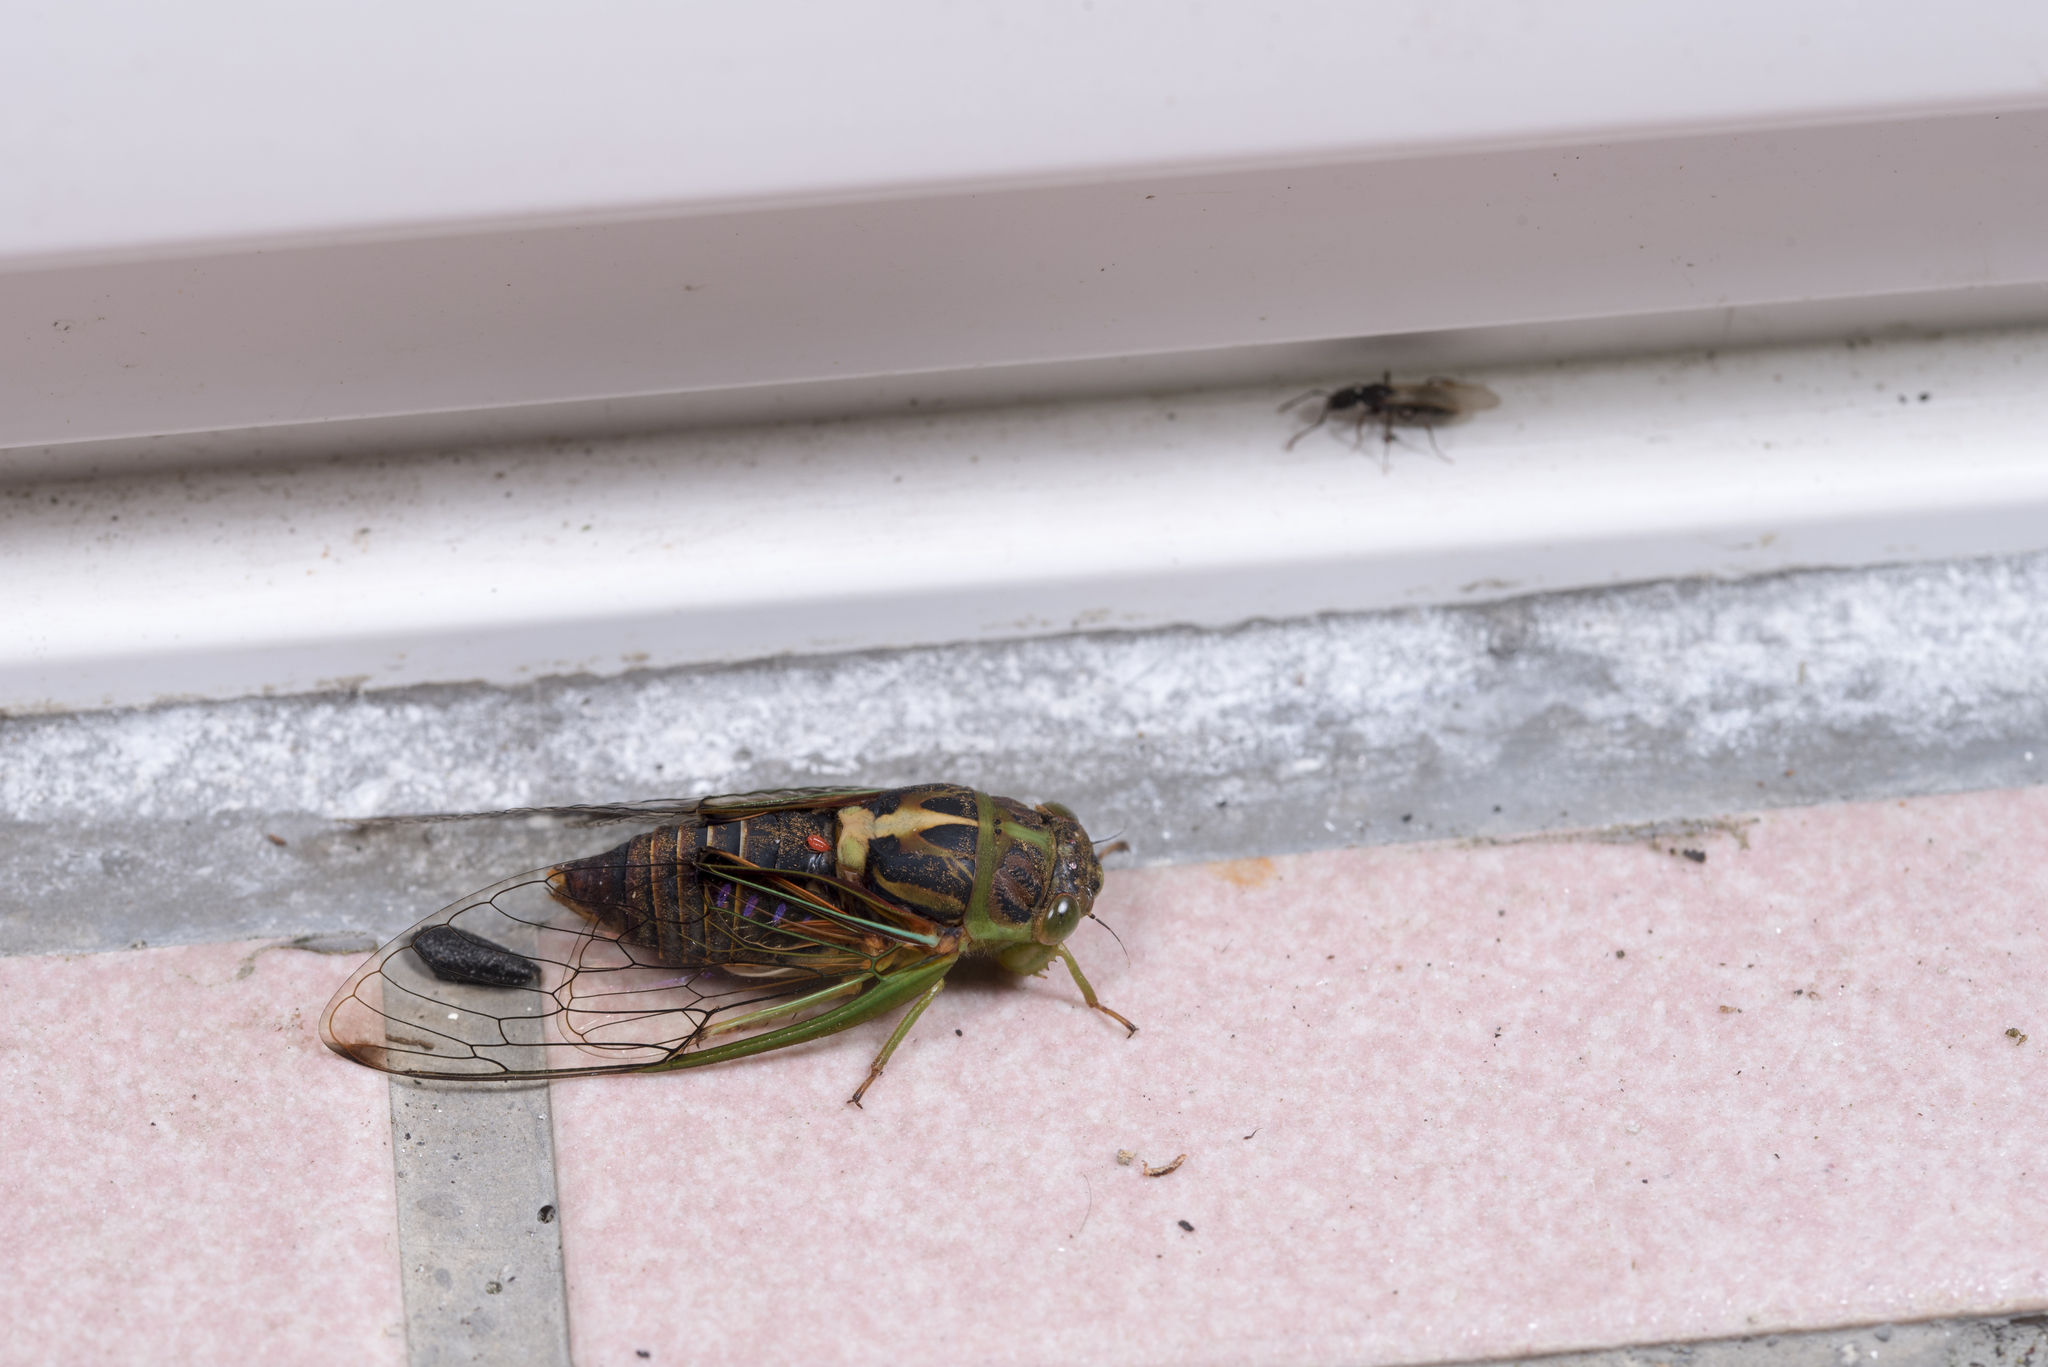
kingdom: Animalia
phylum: Arthropoda
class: Insecta
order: Hemiptera
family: Cicadidae
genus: Vagitanus
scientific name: Vagitanus terminalis
